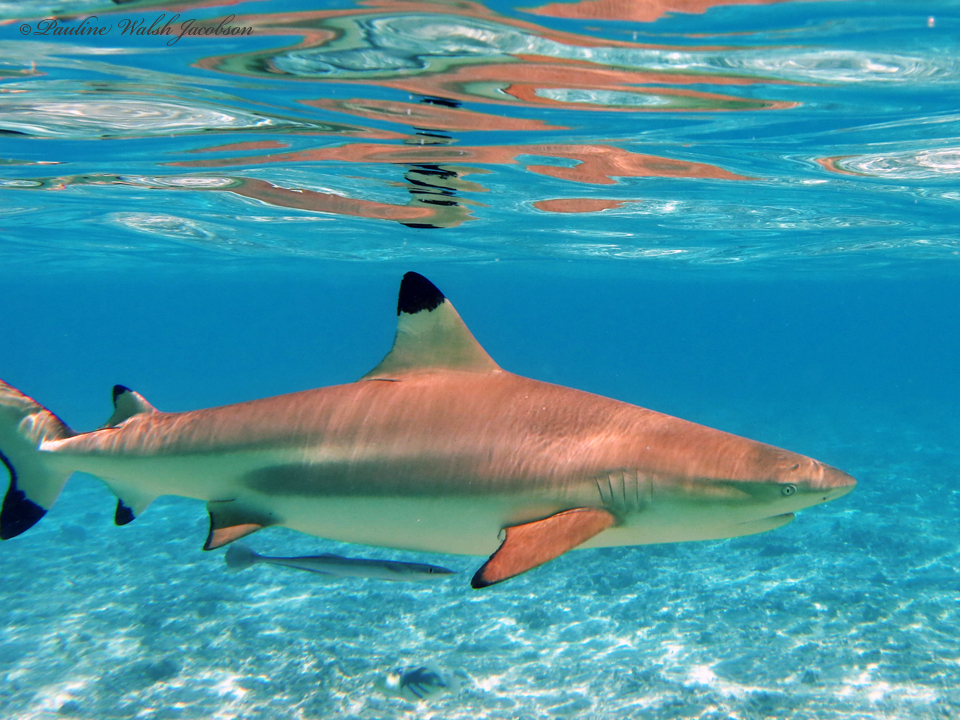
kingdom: Animalia
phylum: Chordata
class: Elasmobranchii
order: Carcharhiniformes
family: Carcharhinidae
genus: Carcharhinus
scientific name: Carcharhinus melanopterus
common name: Blacktip reef shark
